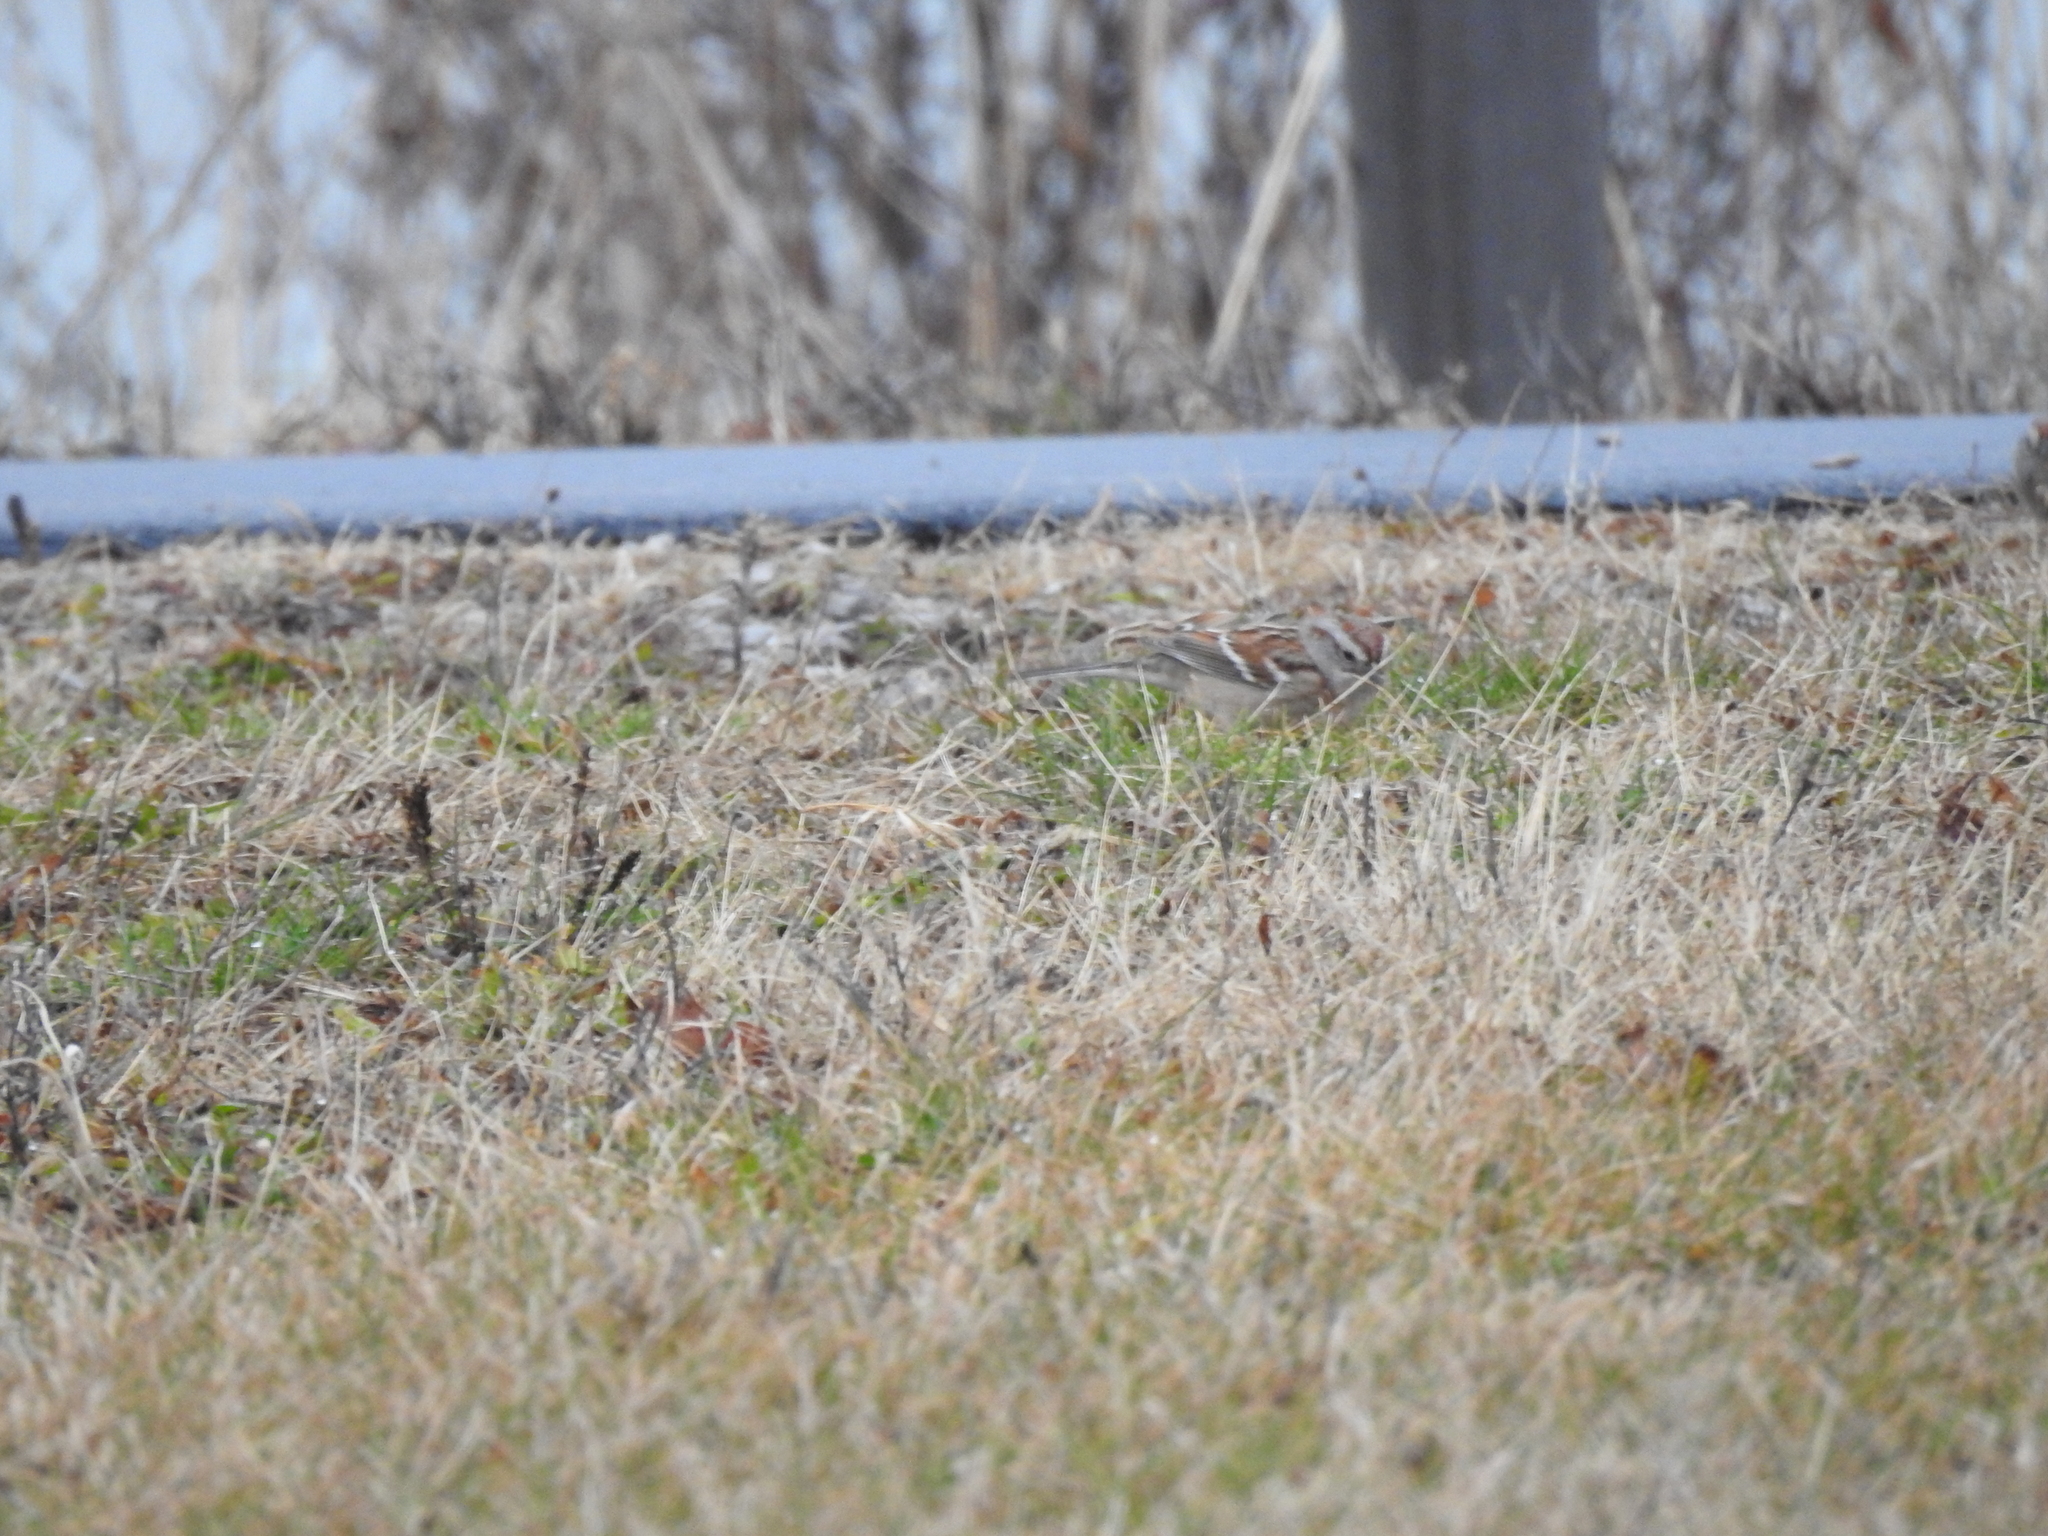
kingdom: Animalia
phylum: Chordata
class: Aves
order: Passeriformes
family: Passerellidae
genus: Spizelloides
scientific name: Spizelloides arborea
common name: American tree sparrow
